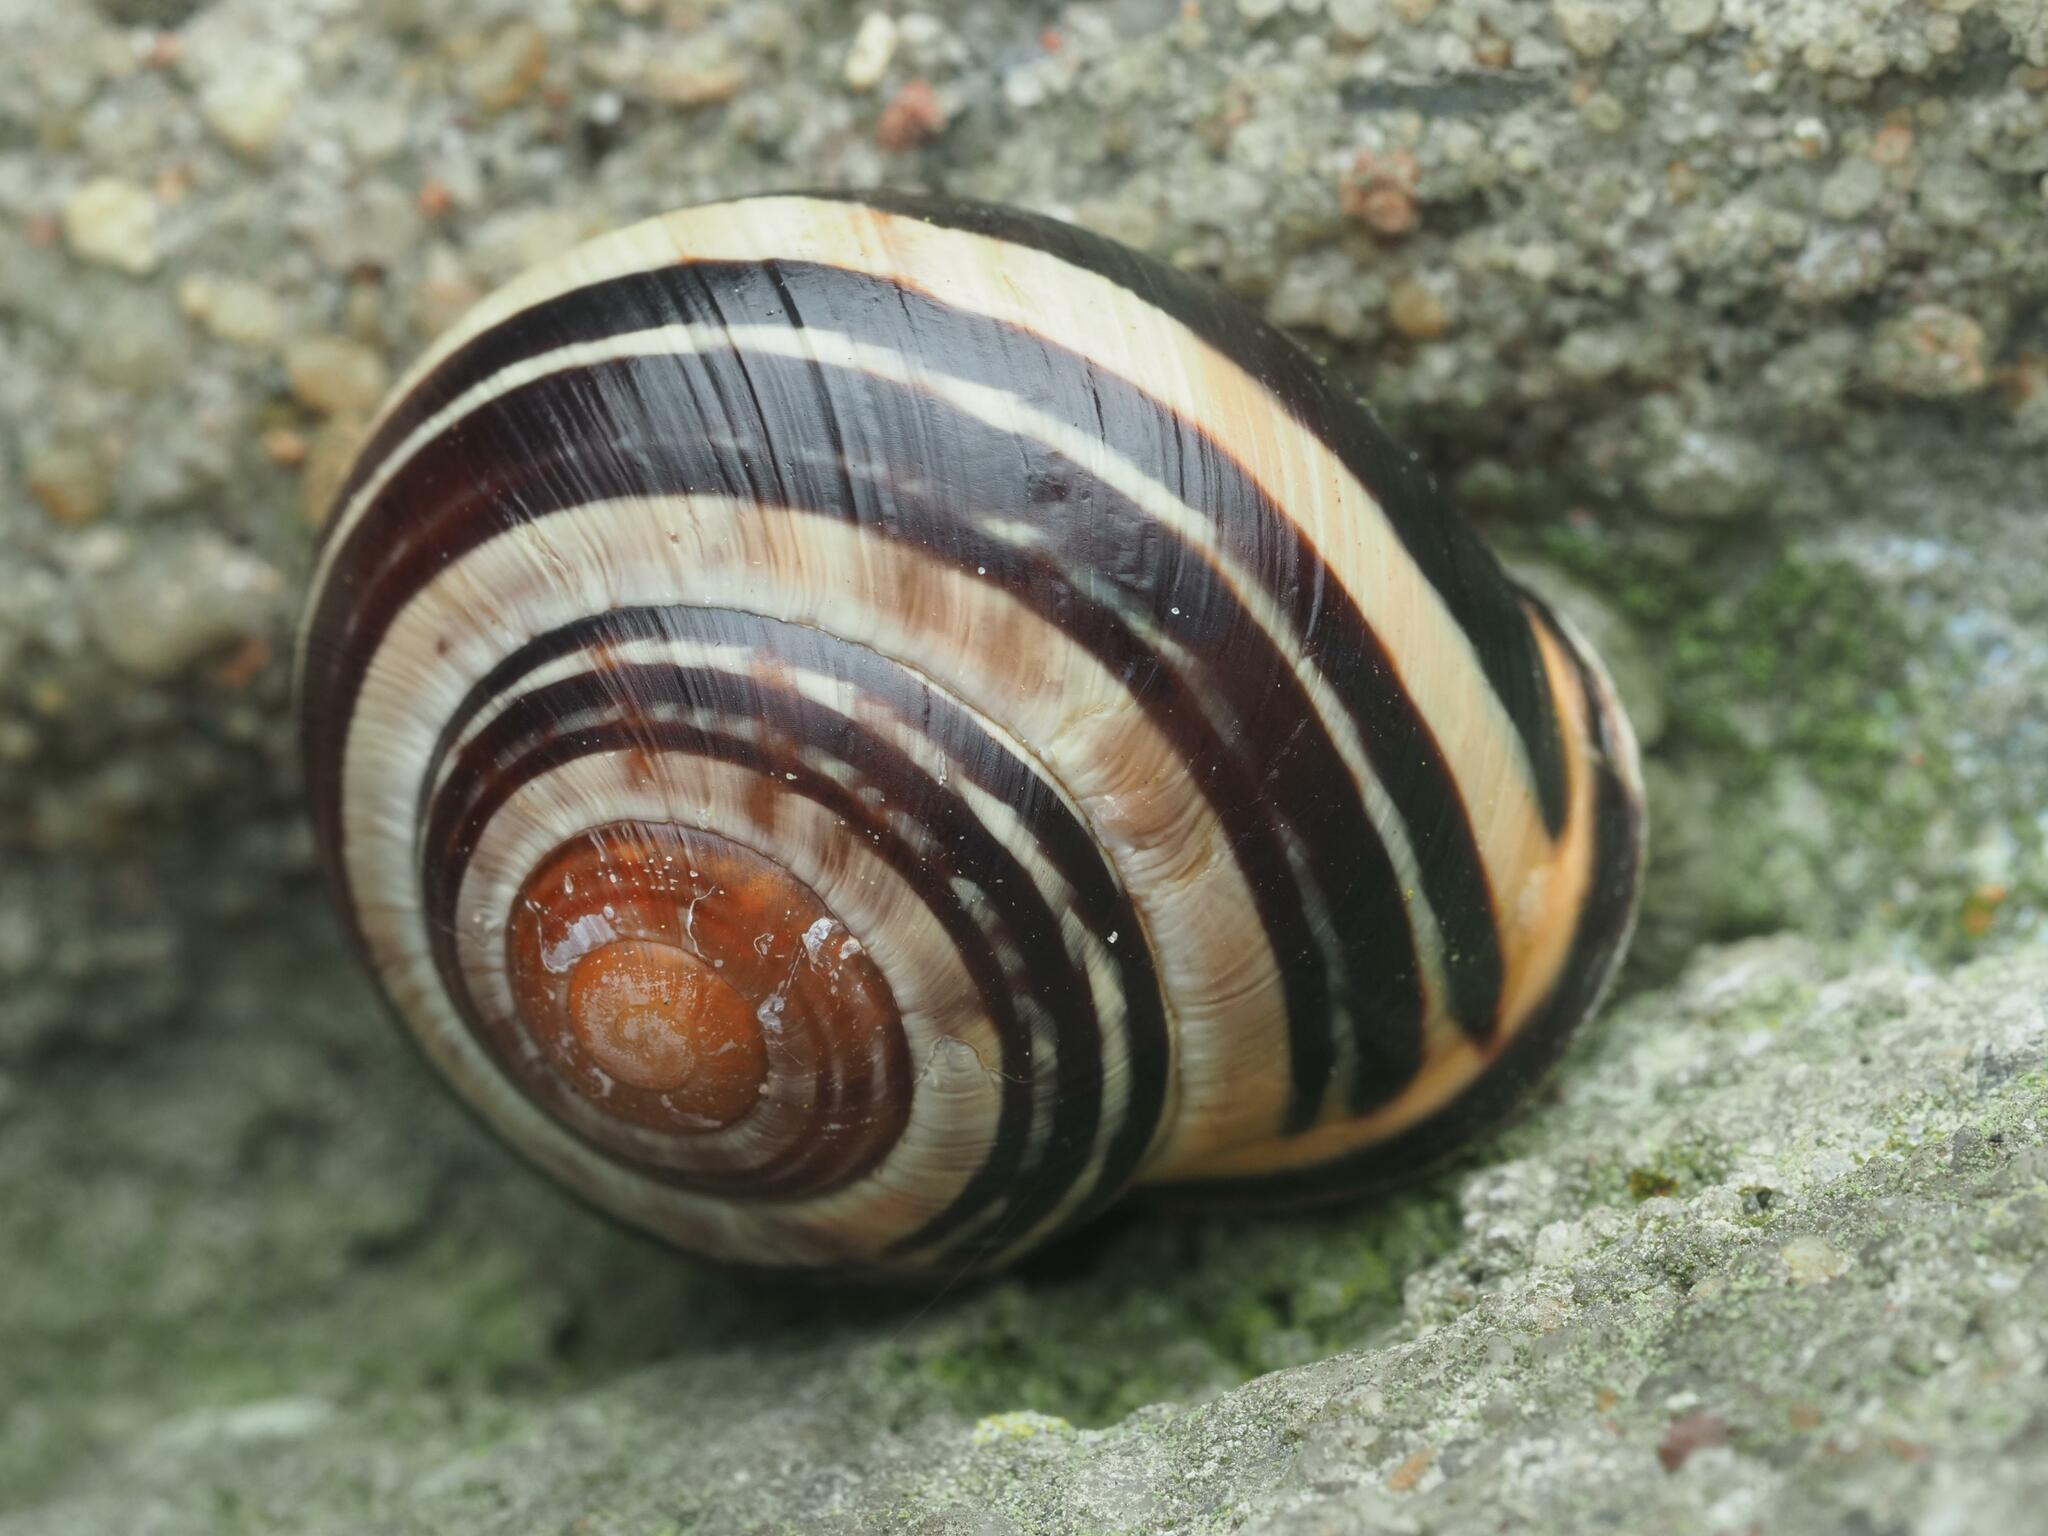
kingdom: Animalia
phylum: Mollusca
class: Gastropoda
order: Stylommatophora
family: Helicidae
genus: Cepaea
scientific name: Cepaea nemoralis
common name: Grovesnail
